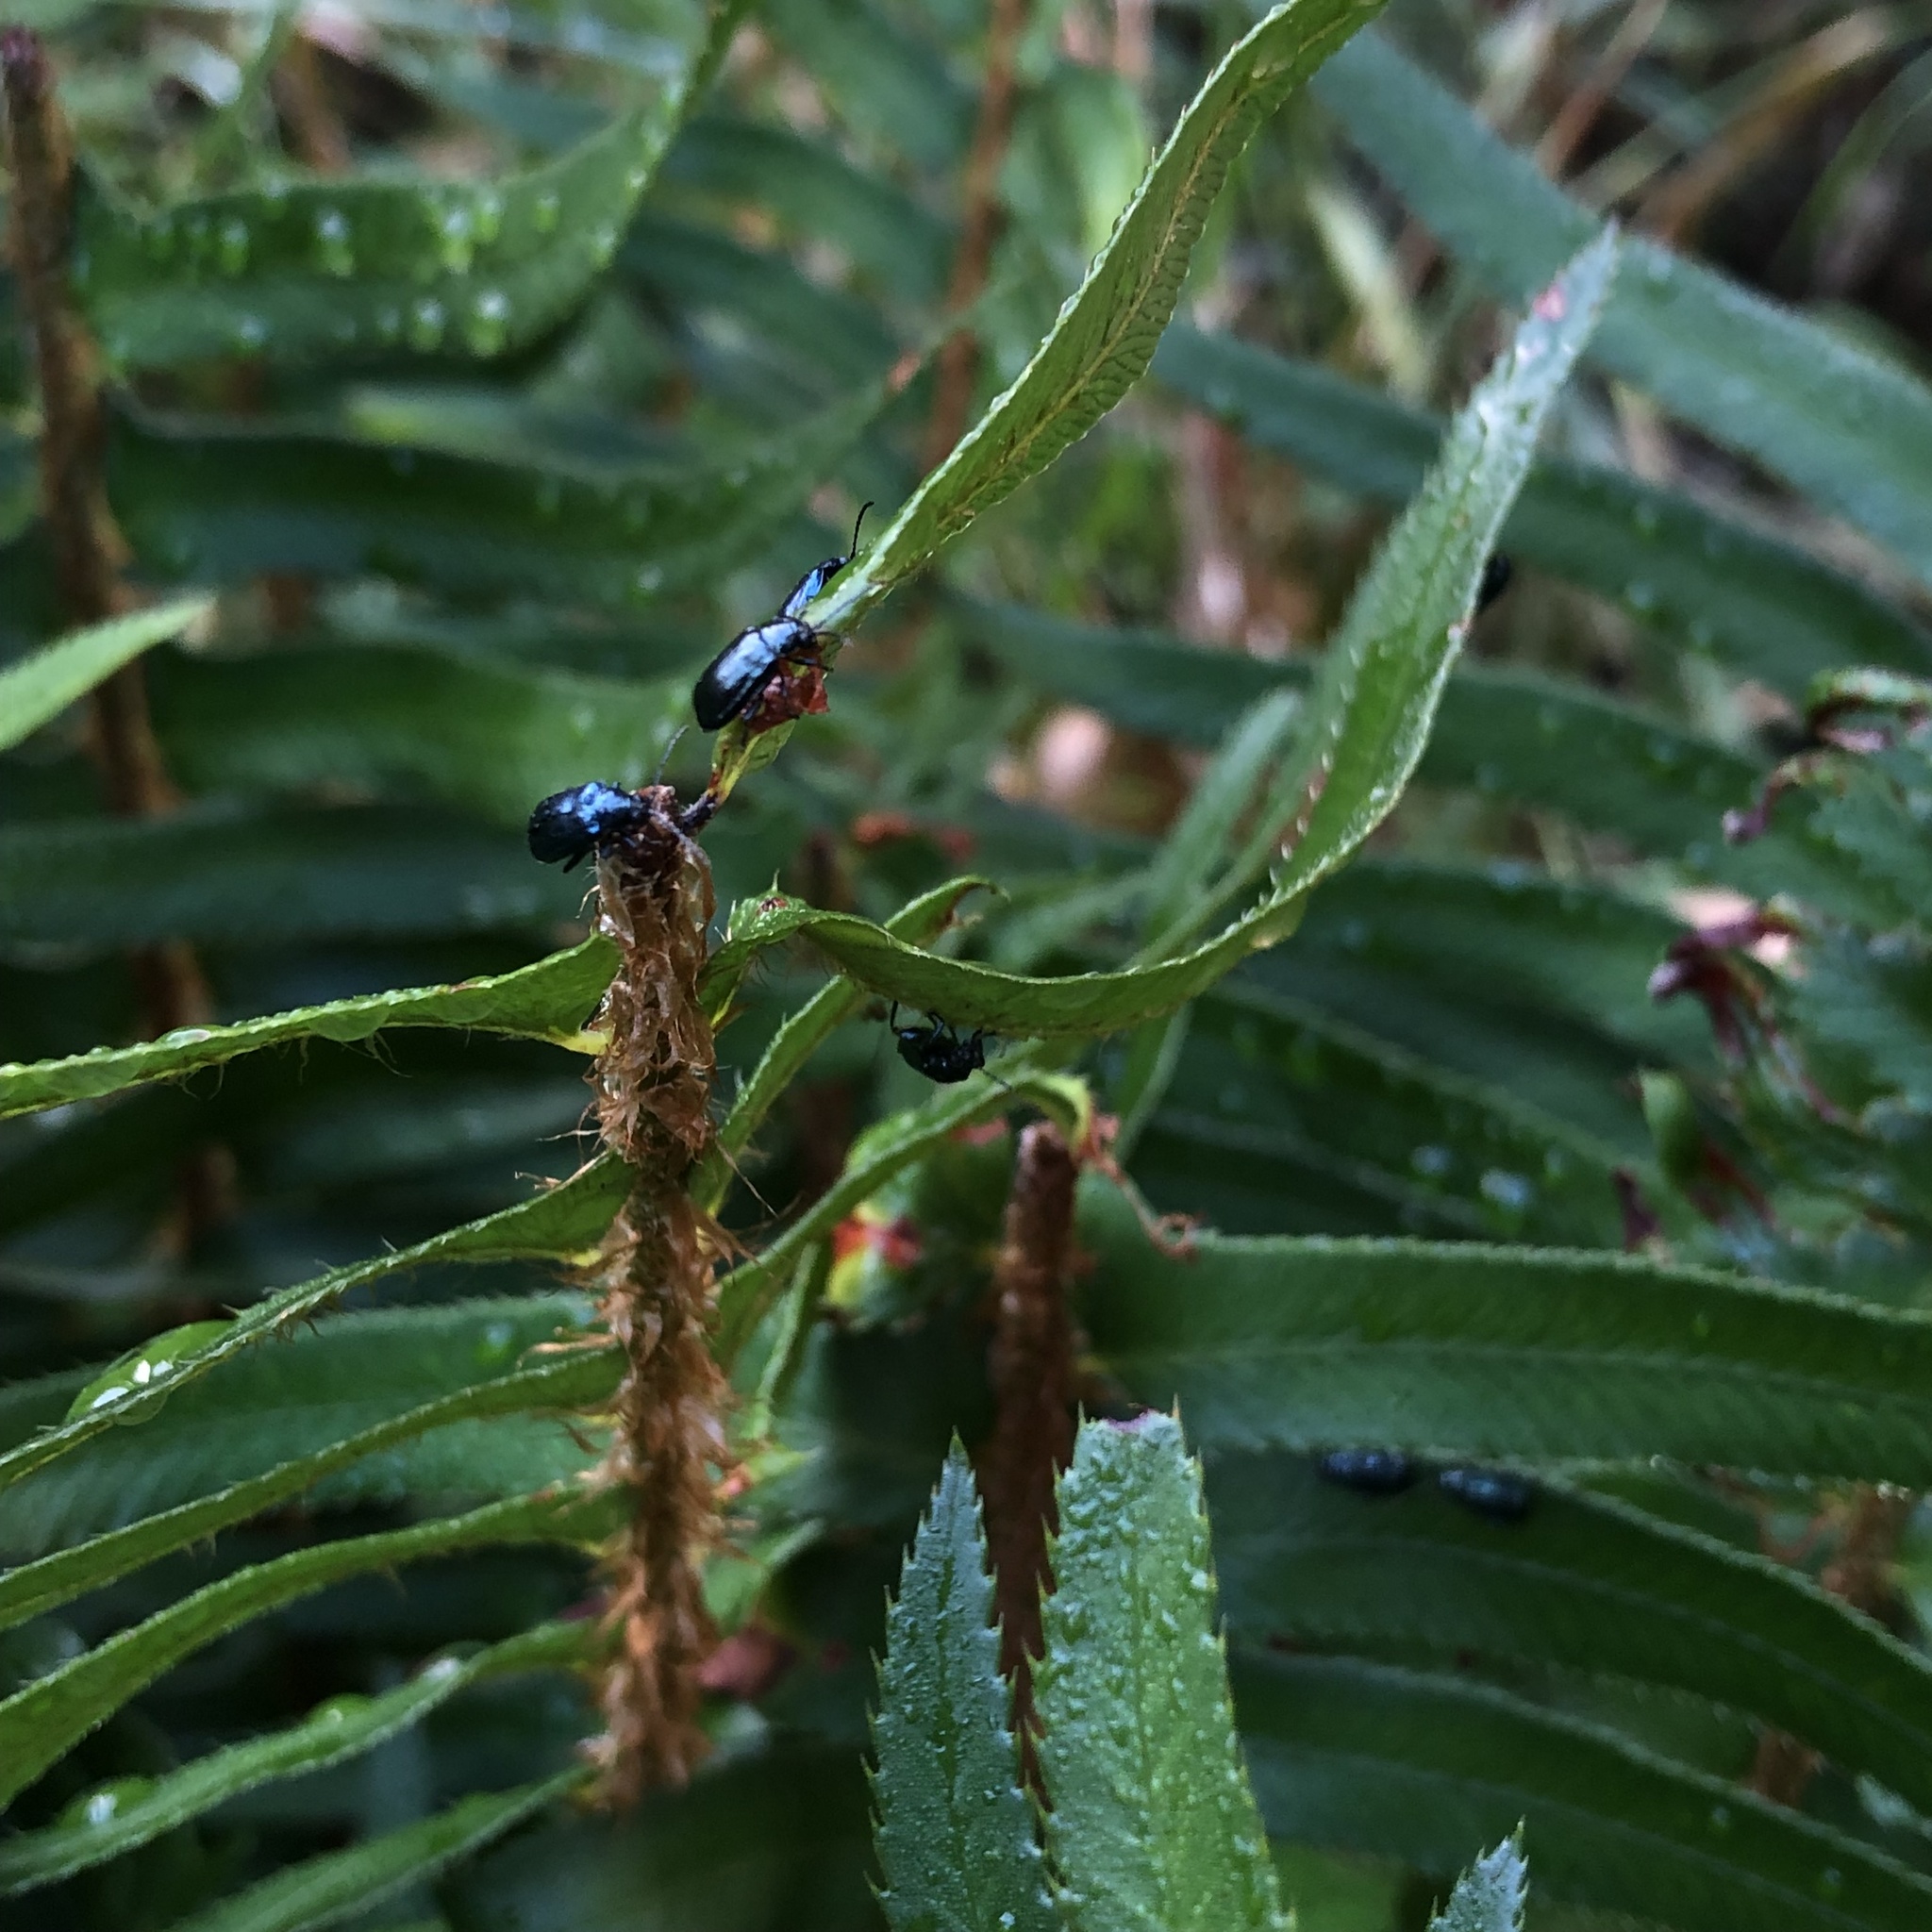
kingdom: Animalia
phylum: Arthropoda
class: Insecta
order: Coleoptera
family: Chrysomelidae
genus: Altica
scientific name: Altica ambiens
